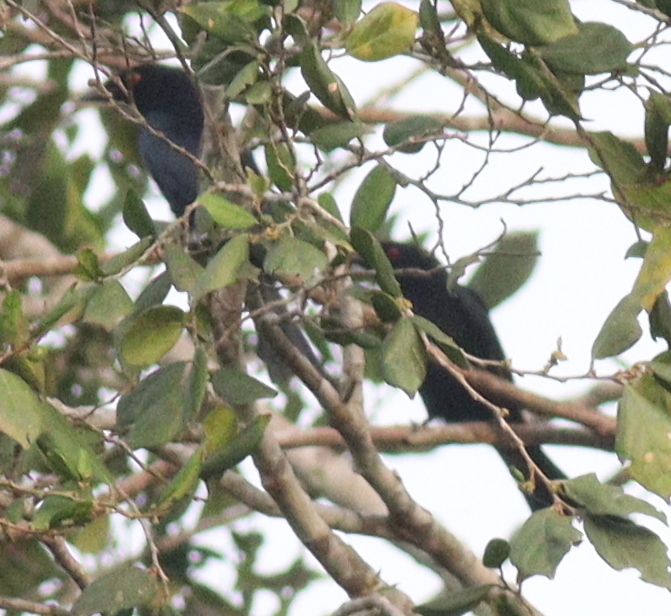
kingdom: Animalia
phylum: Chordata
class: Aves
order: Passeriformes
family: Dicruridae
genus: Dicrurus
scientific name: Dicrurus modestus
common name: Velvet-mantled drongo
